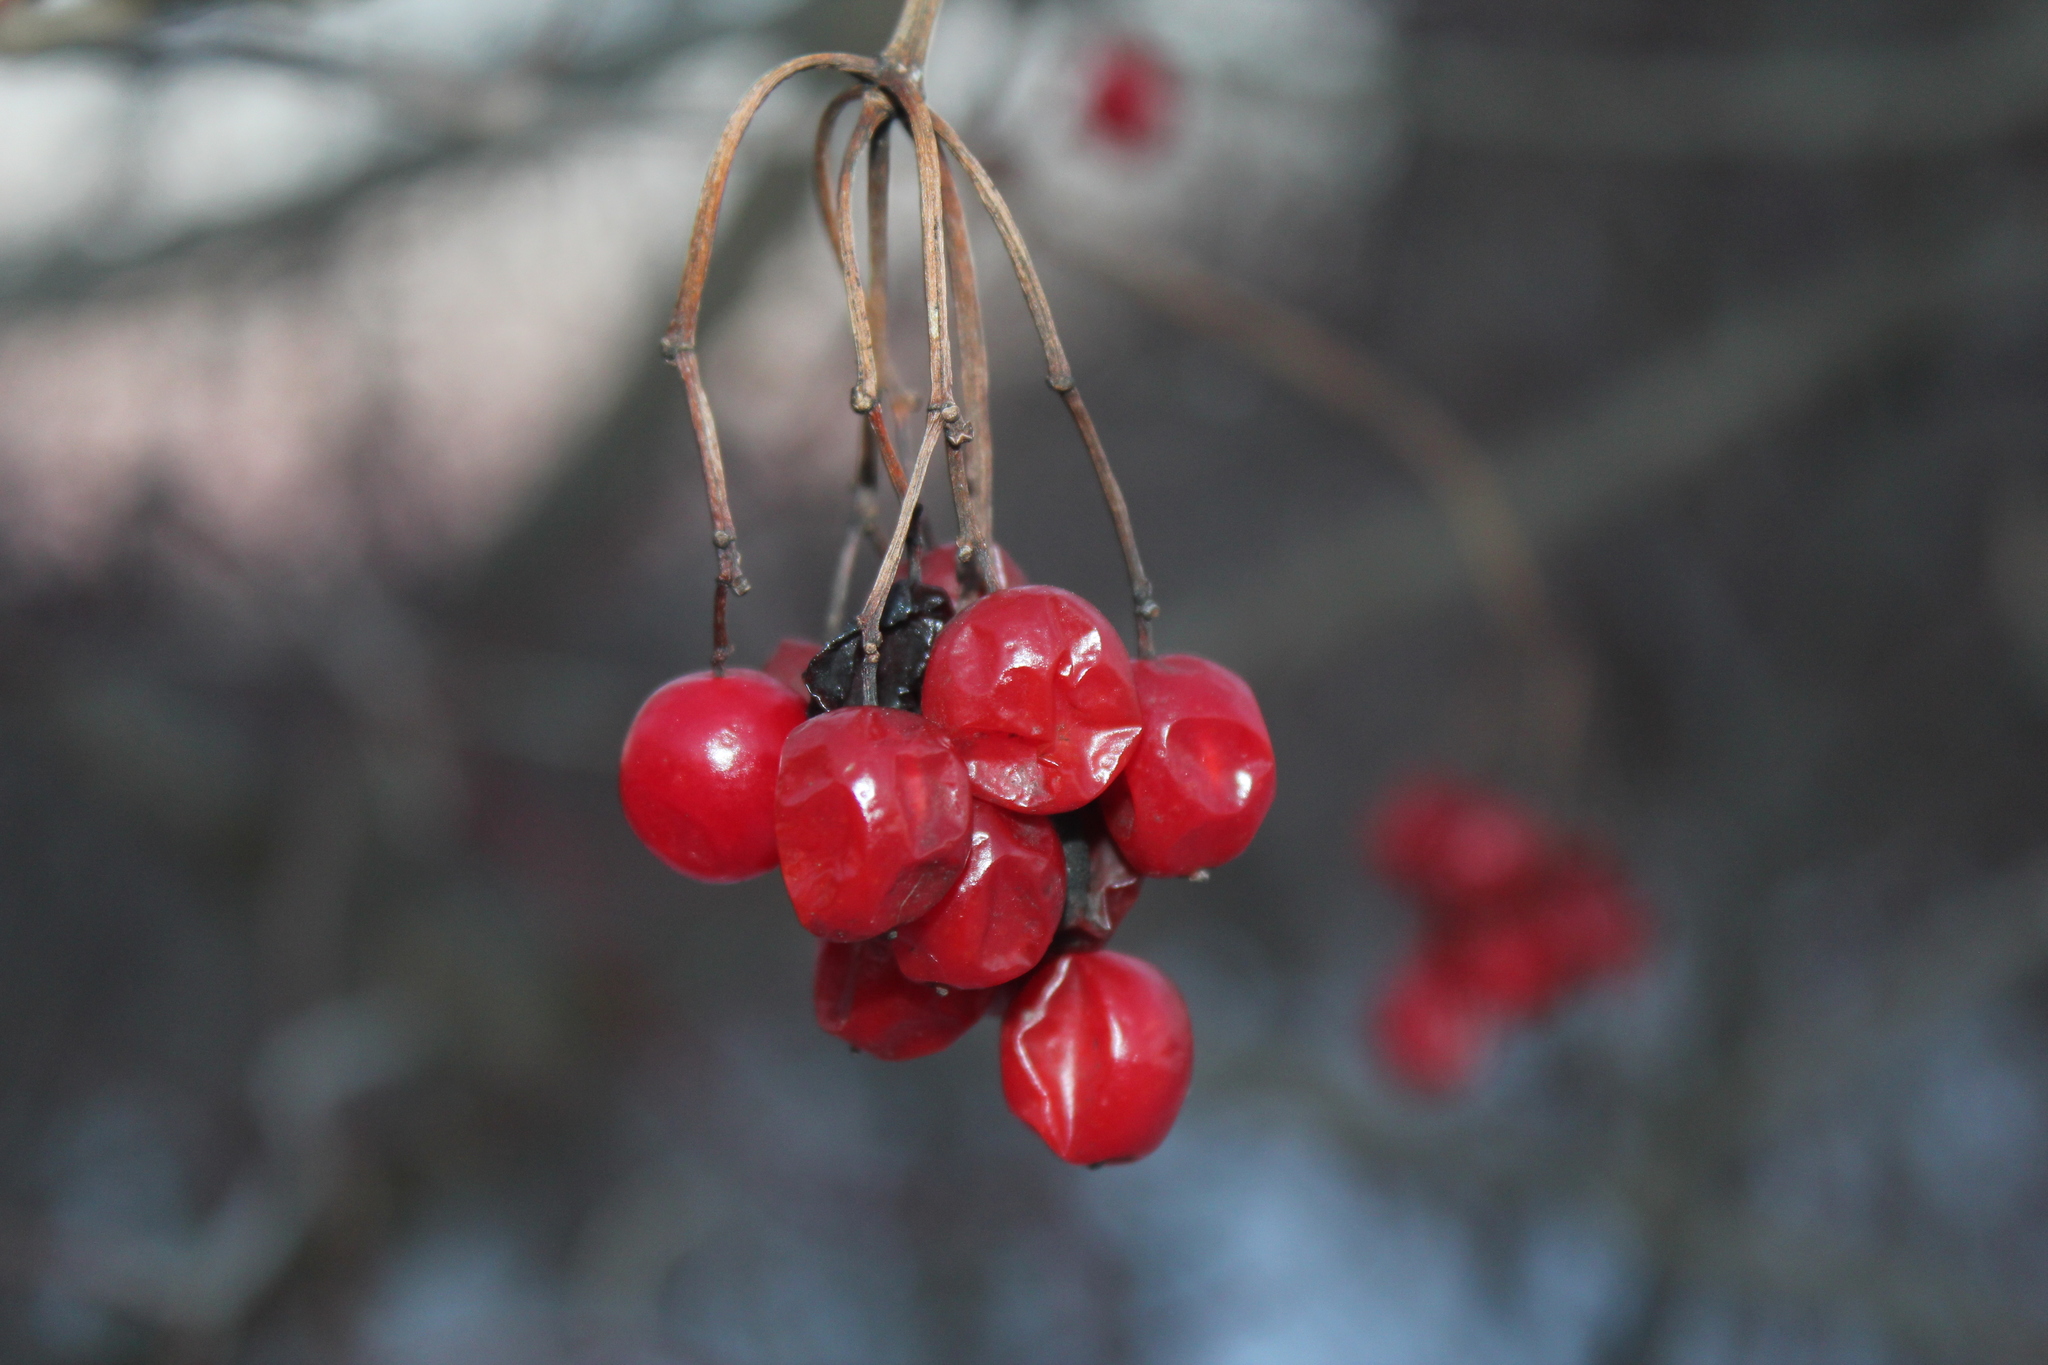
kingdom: Plantae
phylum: Tracheophyta
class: Magnoliopsida
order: Dipsacales
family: Viburnaceae
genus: Viburnum
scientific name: Viburnum opulus
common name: Guelder-rose
